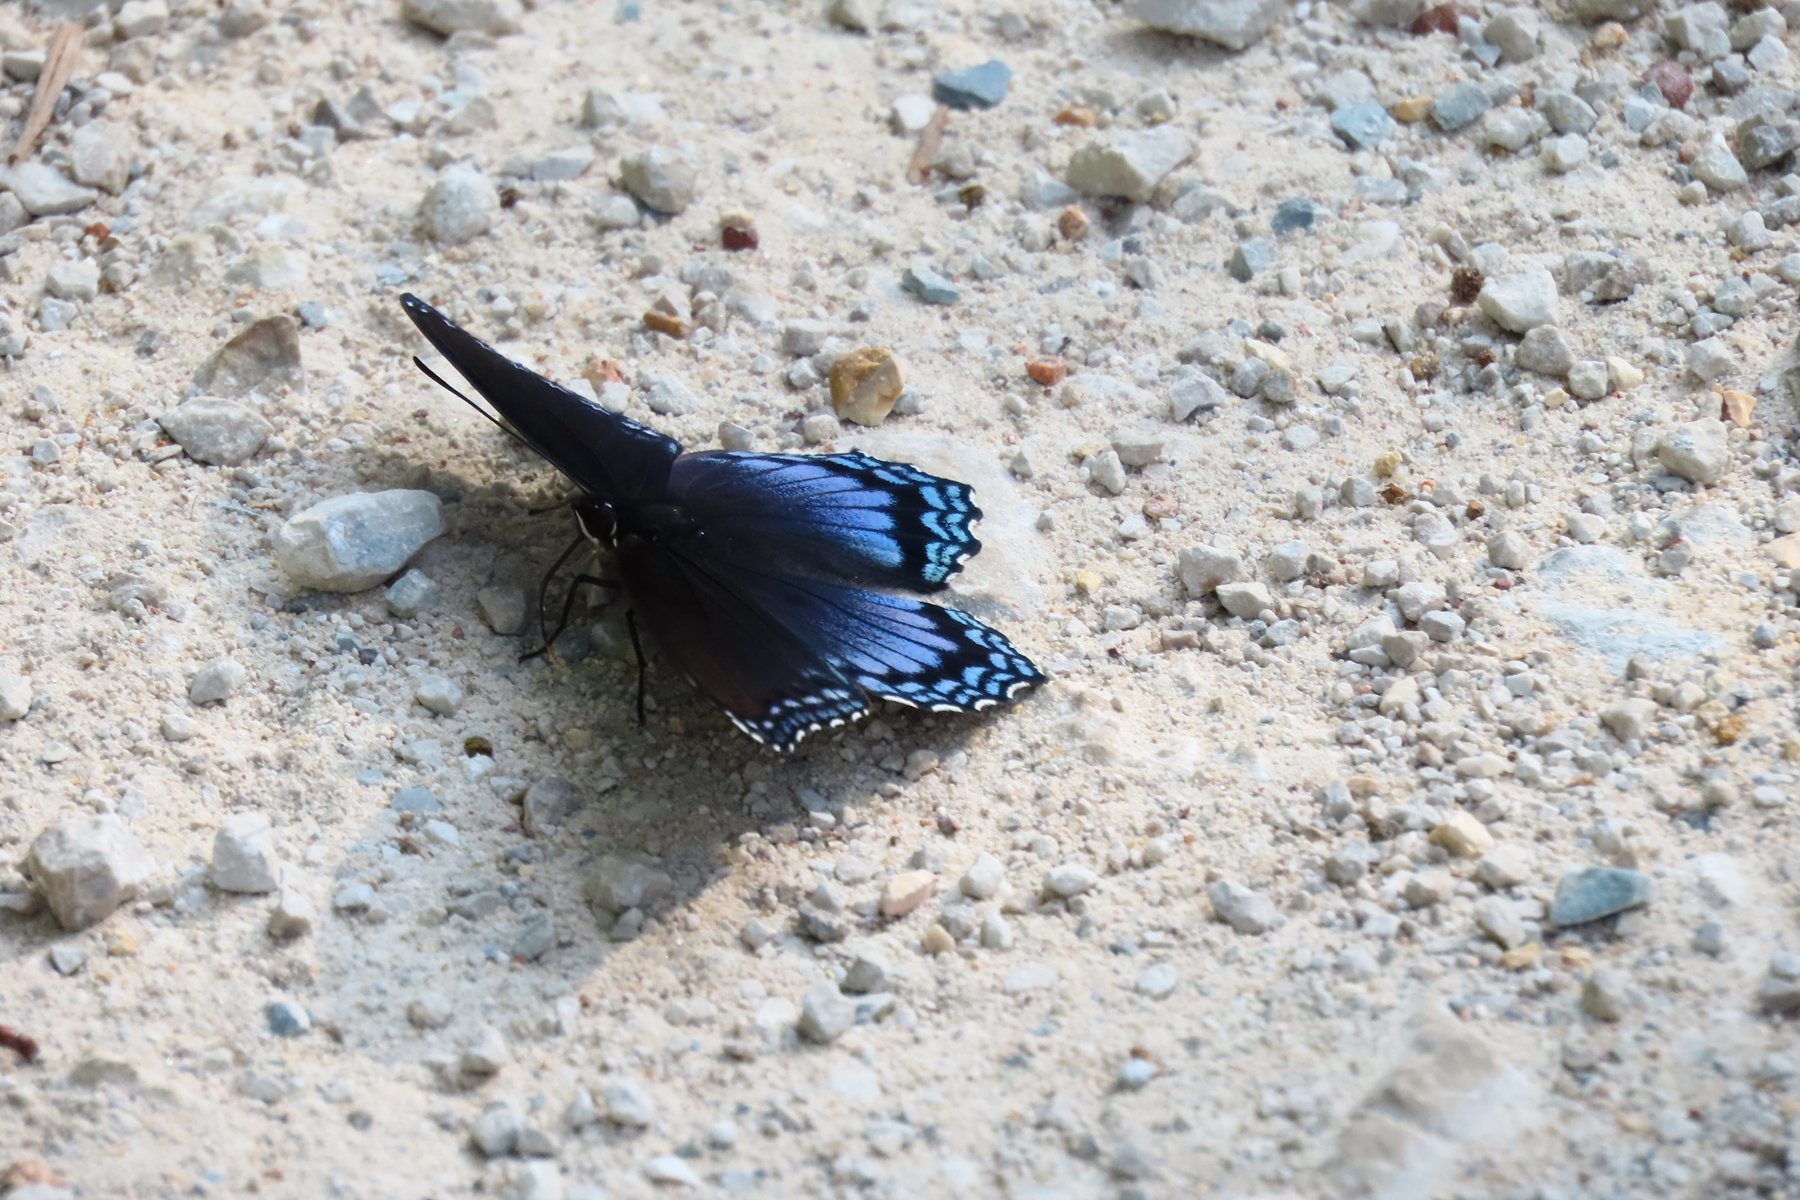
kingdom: Animalia
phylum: Arthropoda
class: Insecta
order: Lepidoptera
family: Nymphalidae
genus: Limenitis
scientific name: Limenitis astyanax
